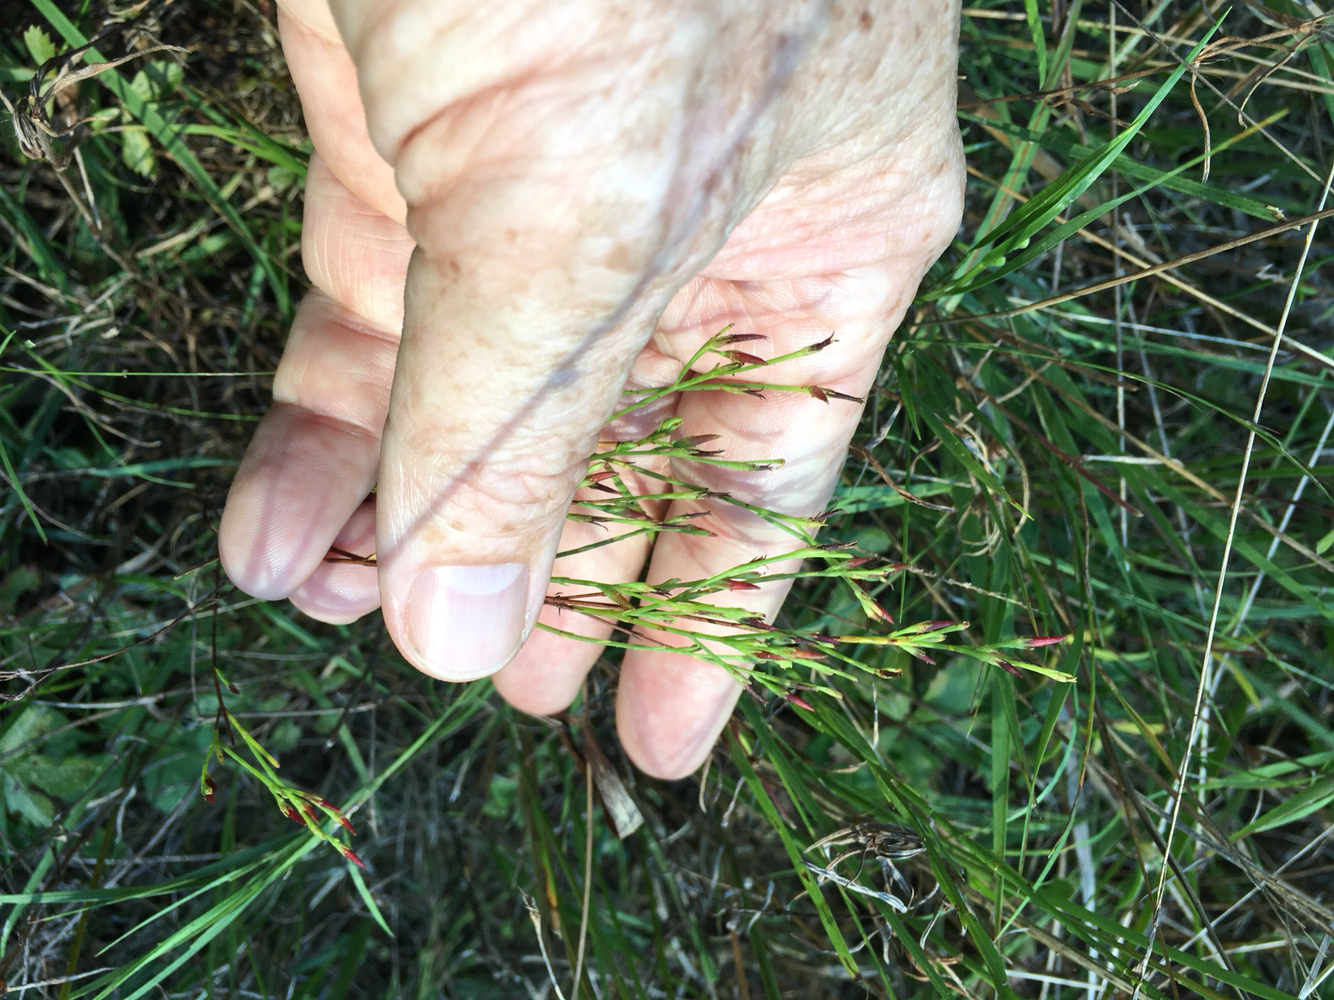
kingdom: Plantae
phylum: Tracheophyta
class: Magnoliopsida
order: Malpighiales
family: Hypericaceae
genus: Hypericum
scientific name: Hypericum gentianoides
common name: Gentian-leaved st. john's-wort
